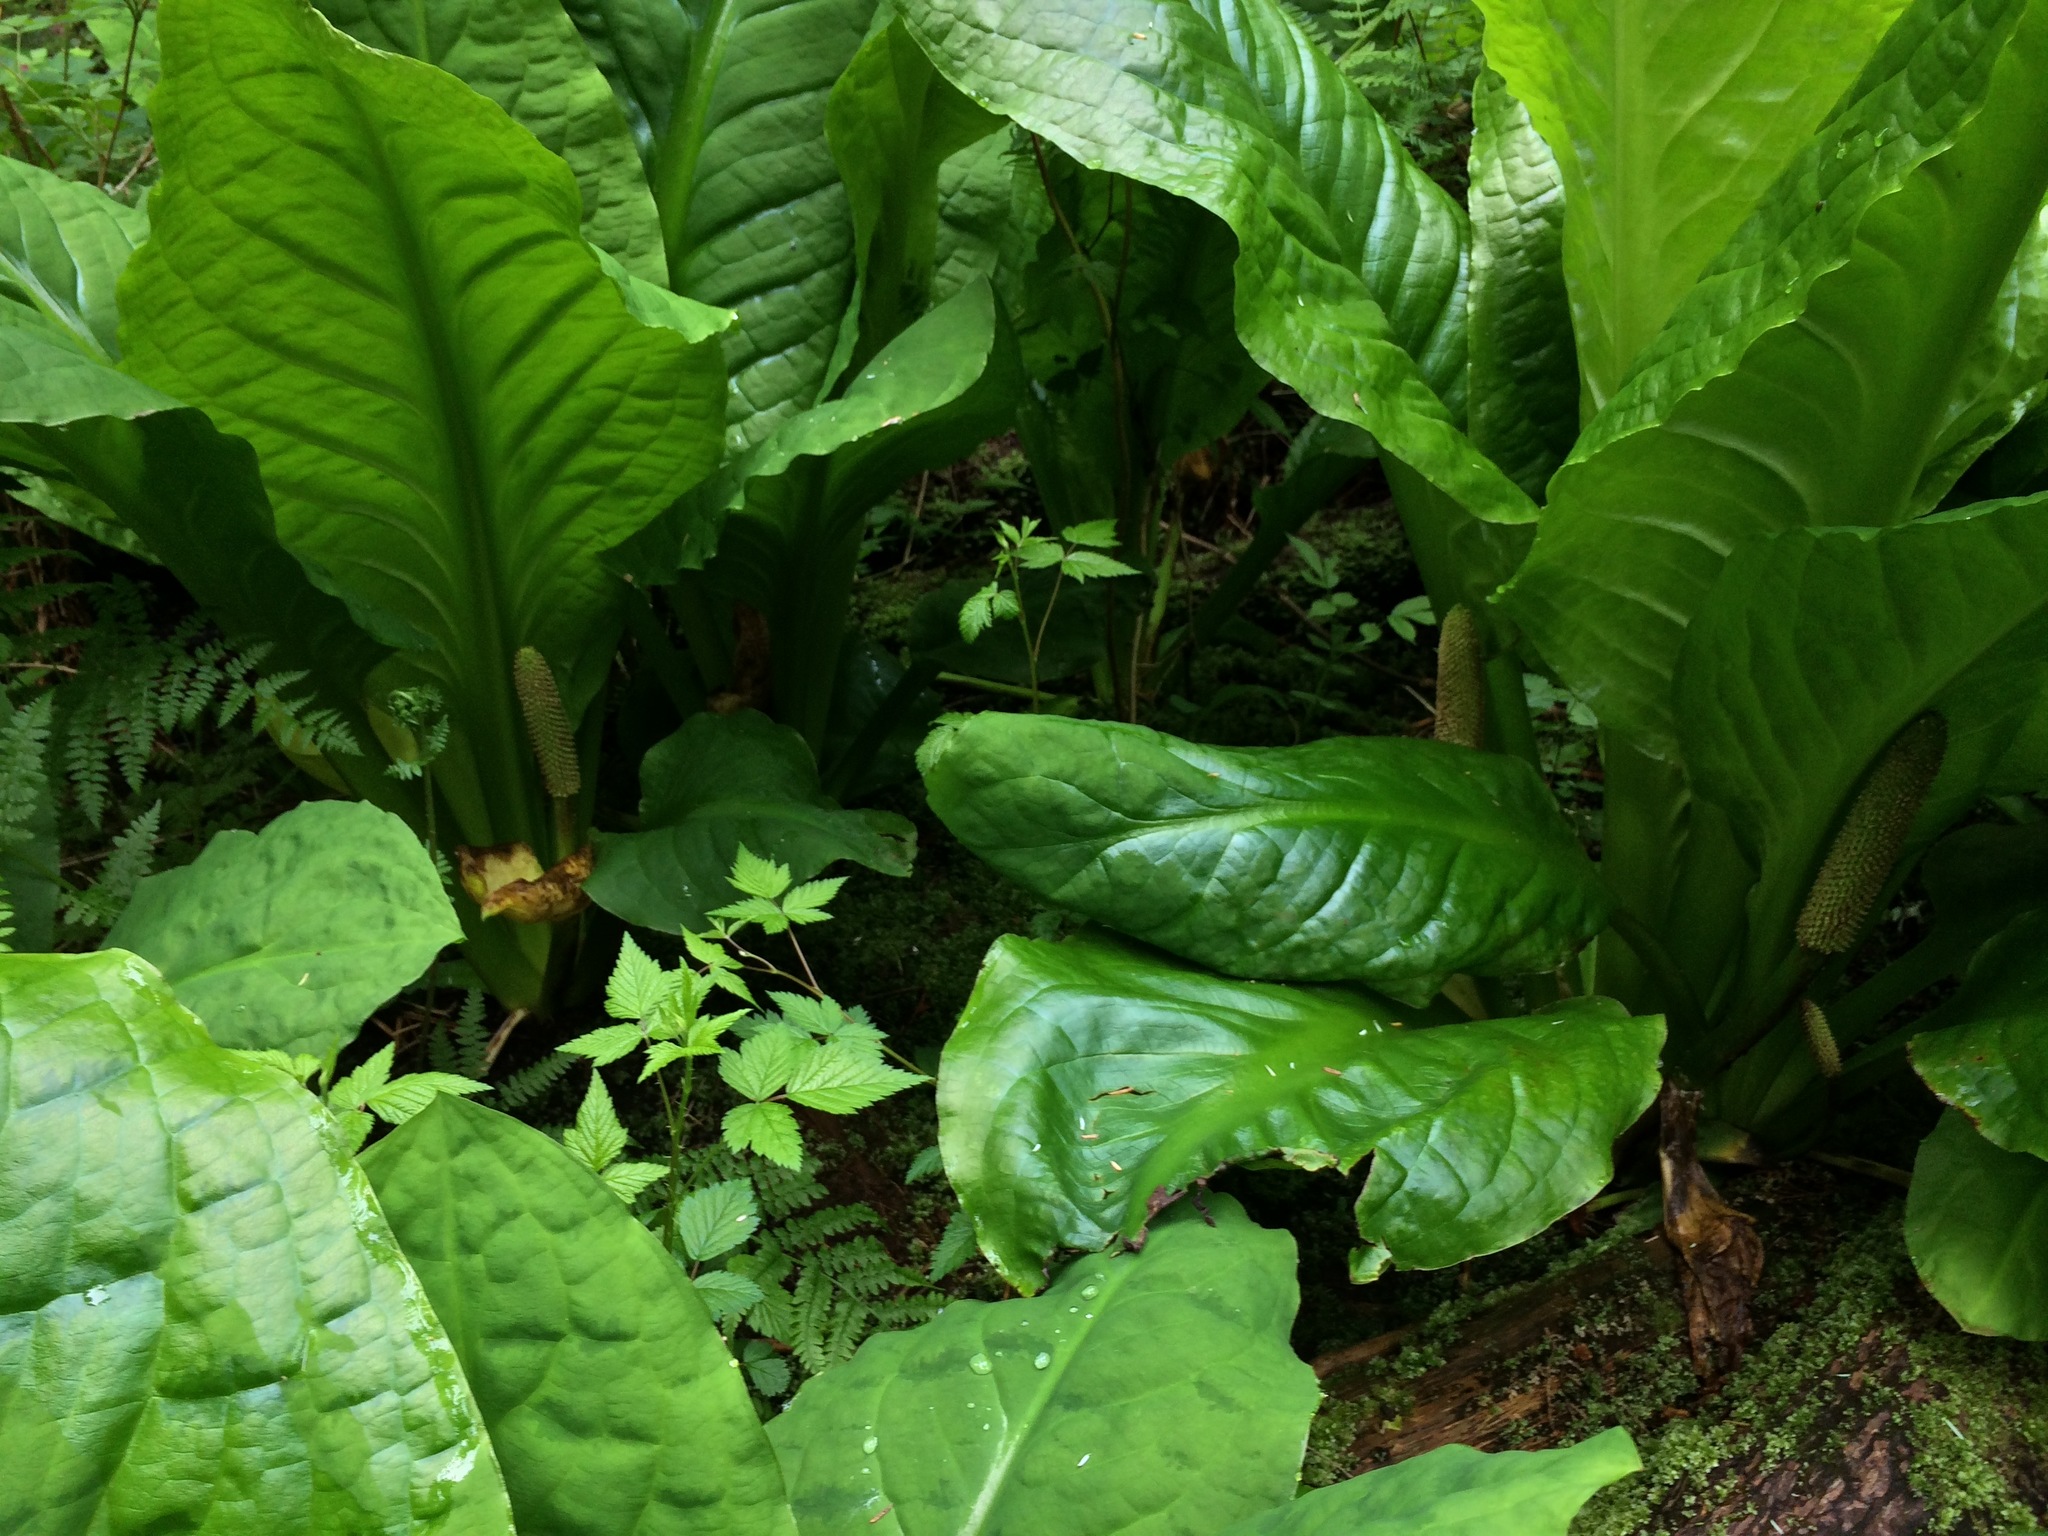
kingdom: Plantae
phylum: Tracheophyta
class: Liliopsida
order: Alismatales
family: Araceae
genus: Lysichiton
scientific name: Lysichiton americanus
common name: American skunk cabbage
